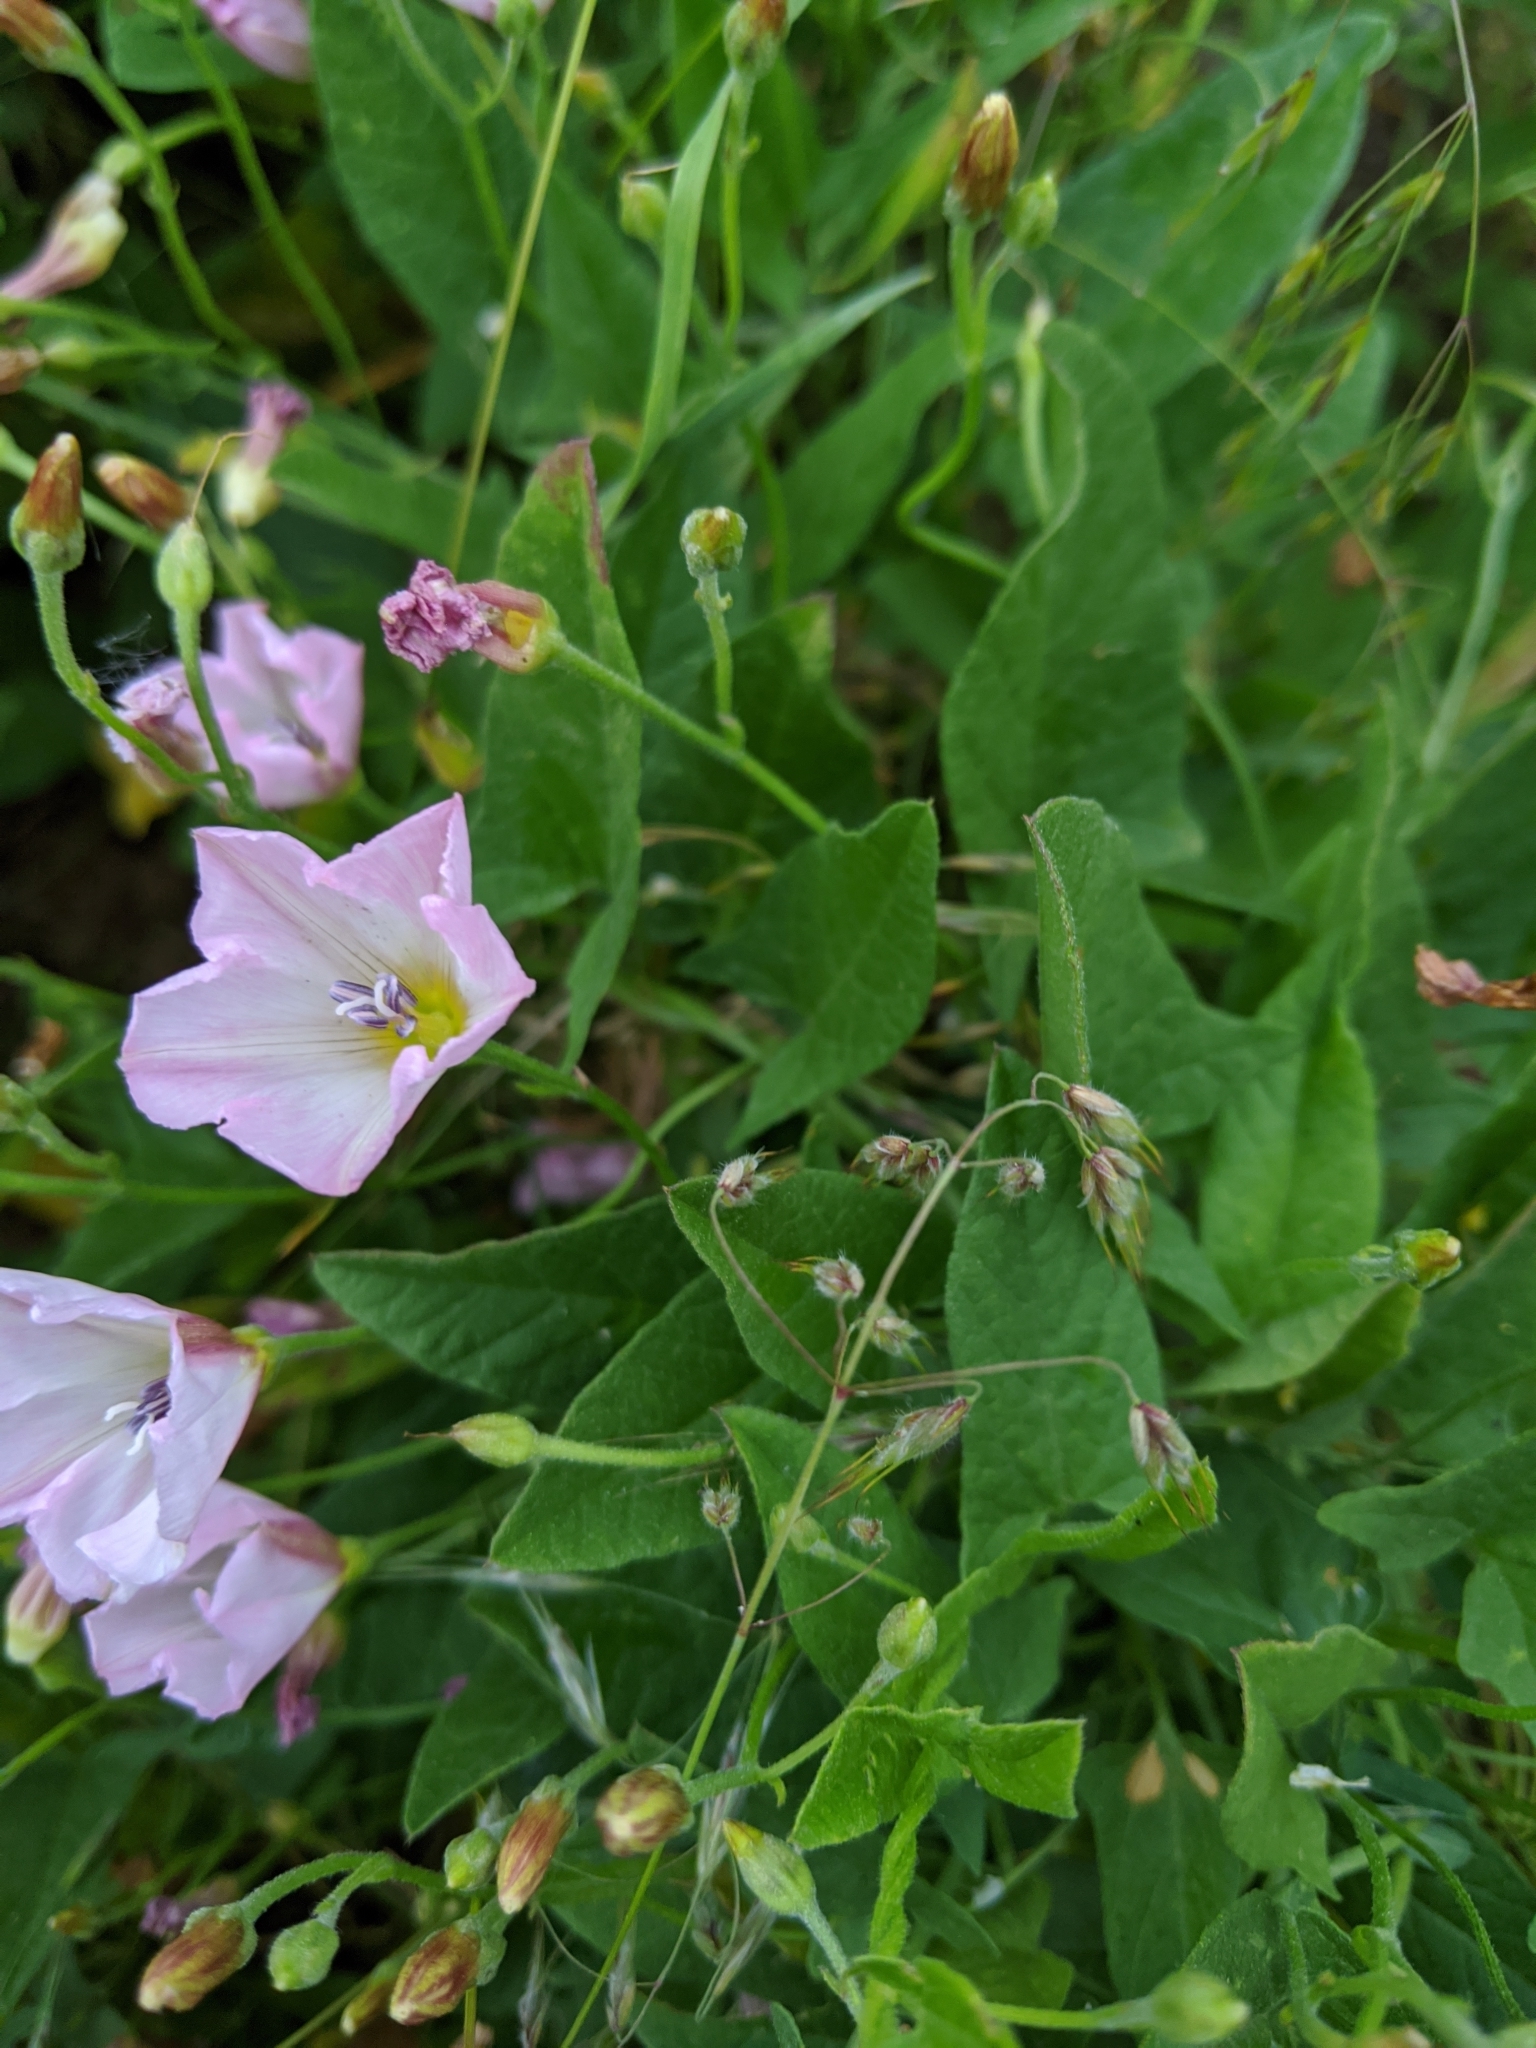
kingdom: Plantae
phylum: Tracheophyta
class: Magnoliopsida
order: Solanales
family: Convolvulaceae
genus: Convolvulus
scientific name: Convolvulus arvensis
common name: Field bindweed
